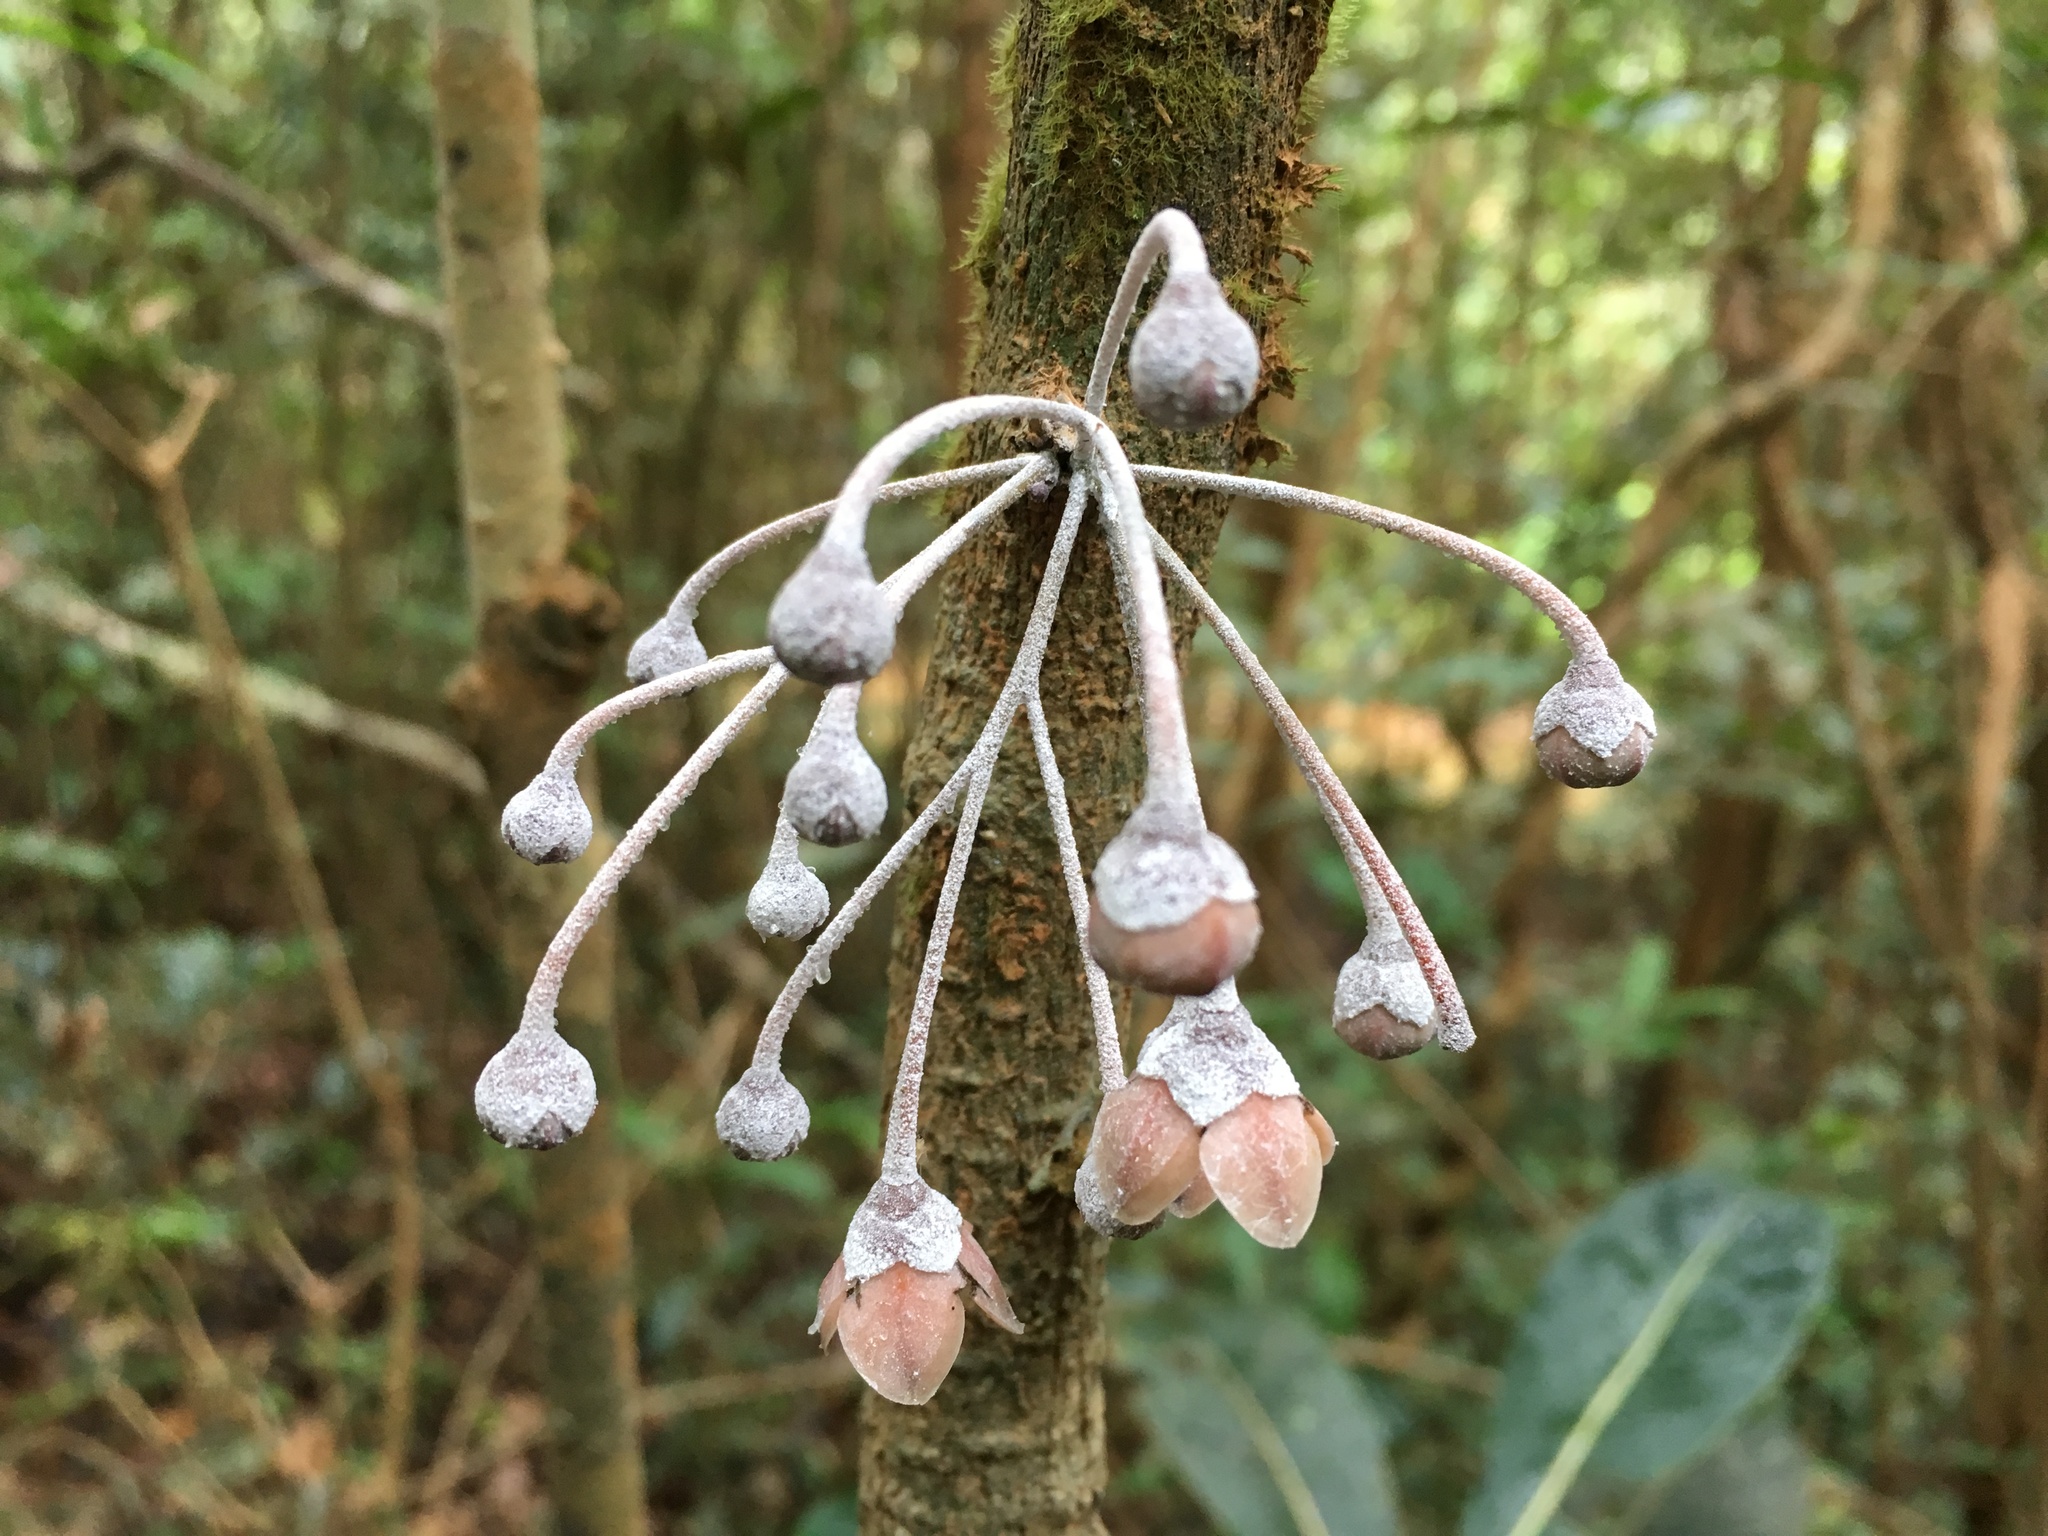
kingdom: Plantae
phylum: Tracheophyta
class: Magnoliopsida
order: Ericales
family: Ebenaceae
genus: Diospyros
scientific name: Diospyros gracilipes
